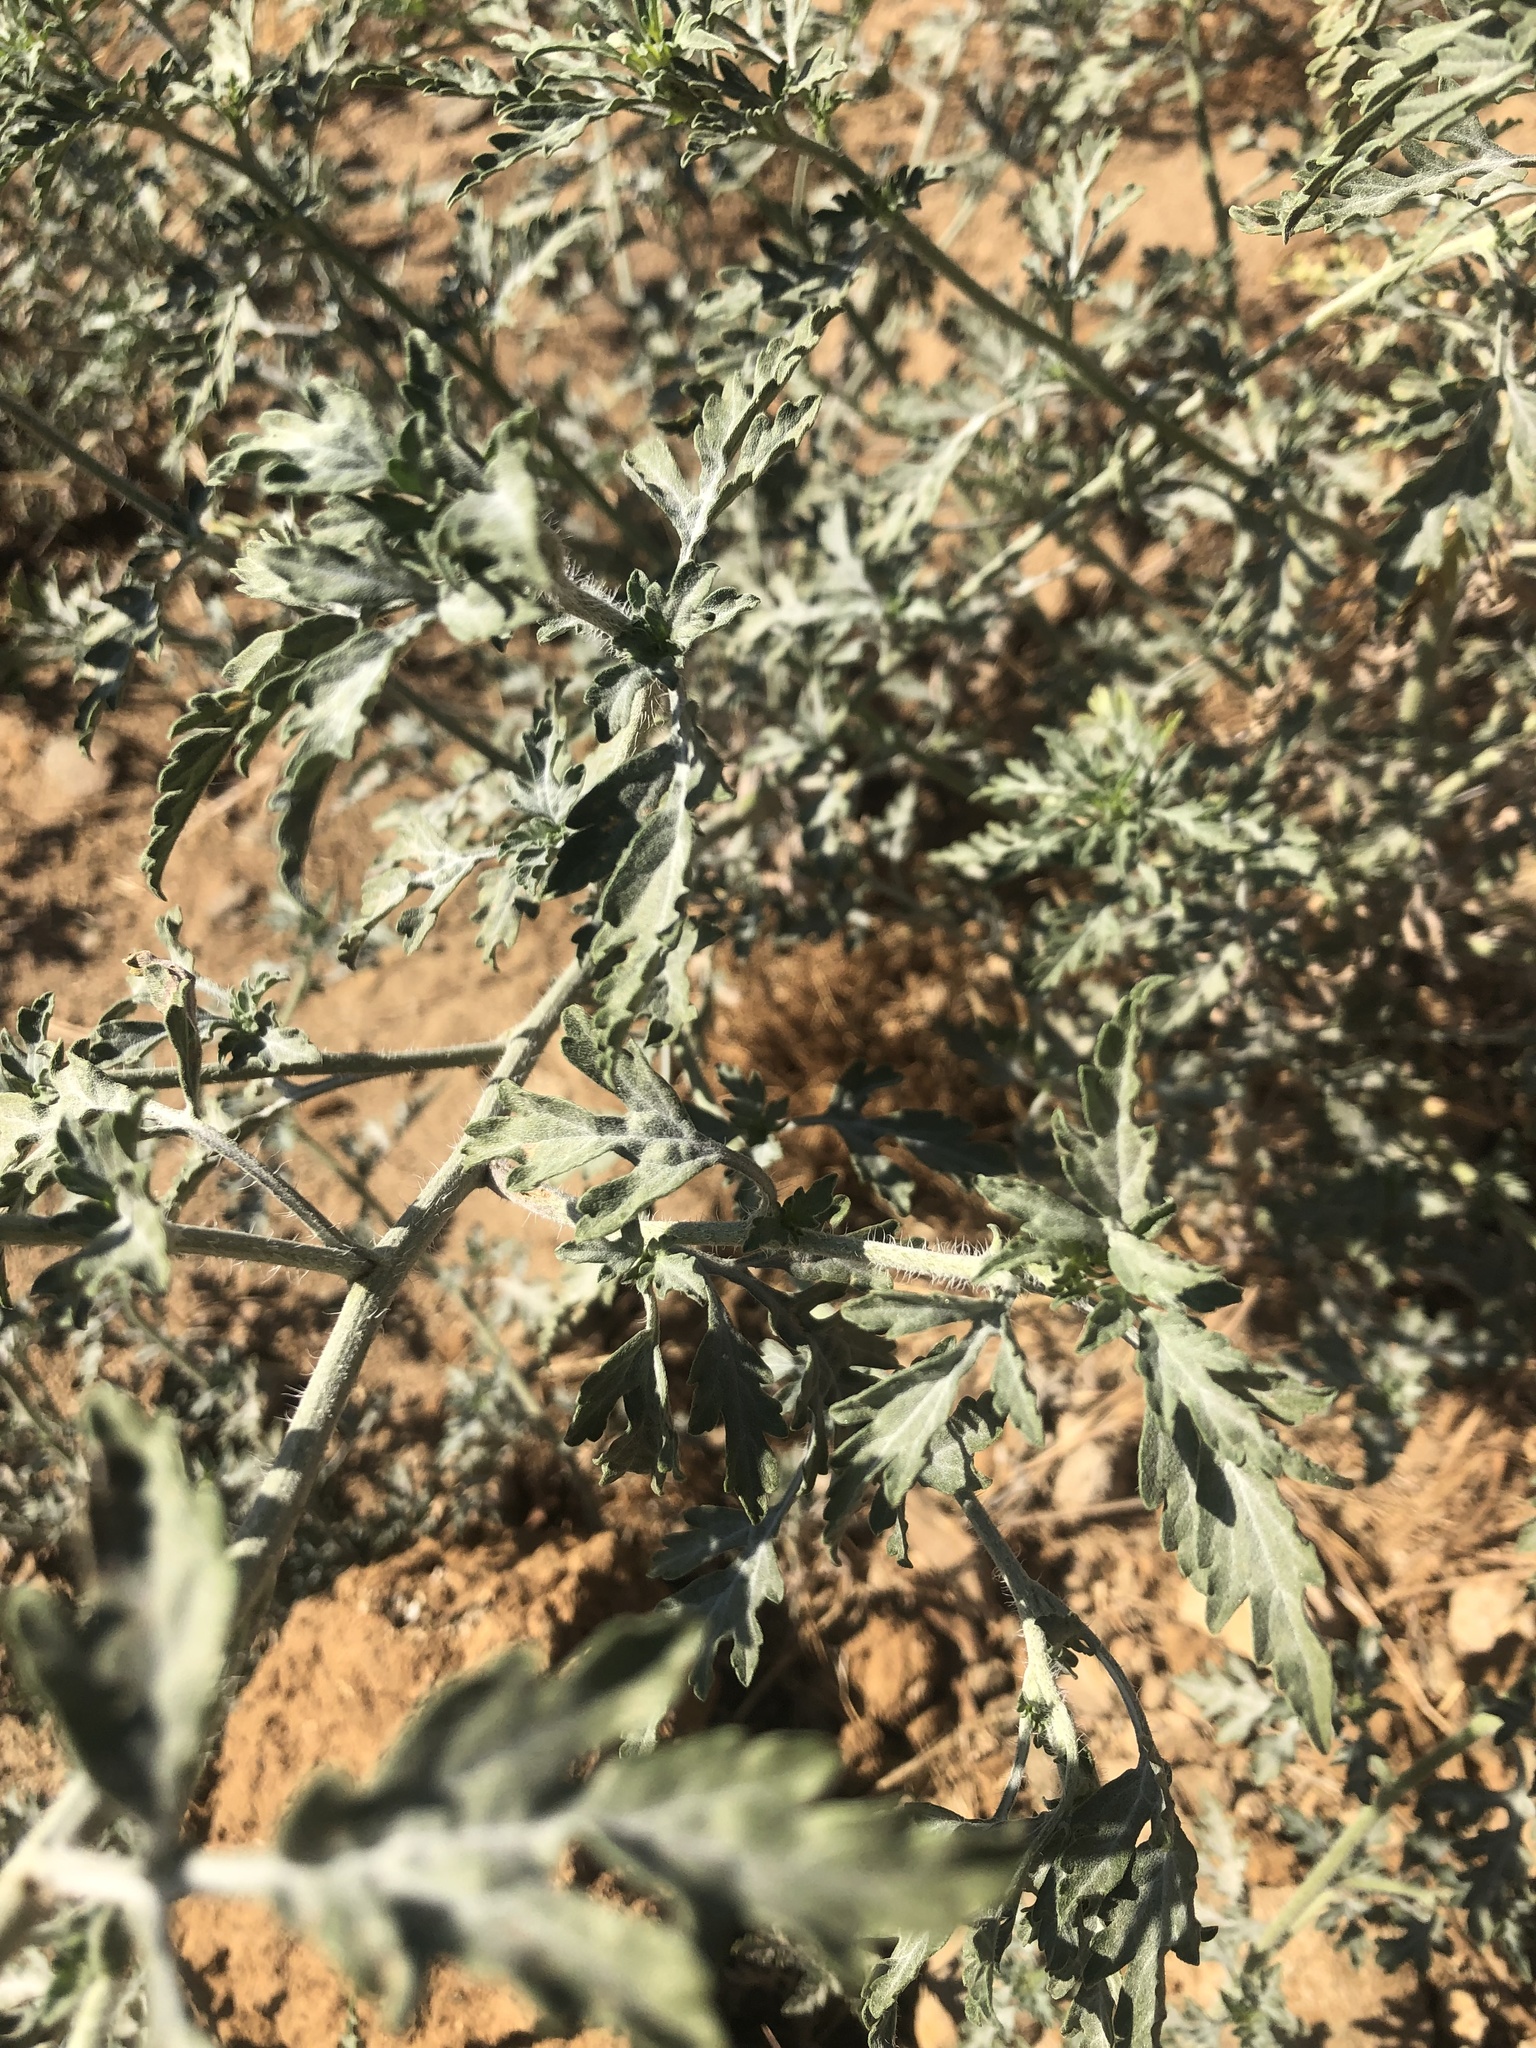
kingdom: Plantae
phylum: Tracheophyta
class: Magnoliopsida
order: Asterales
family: Asteraceae
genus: Ambrosia
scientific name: Ambrosia acanthicarpa
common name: Hooker's bur ragweed
